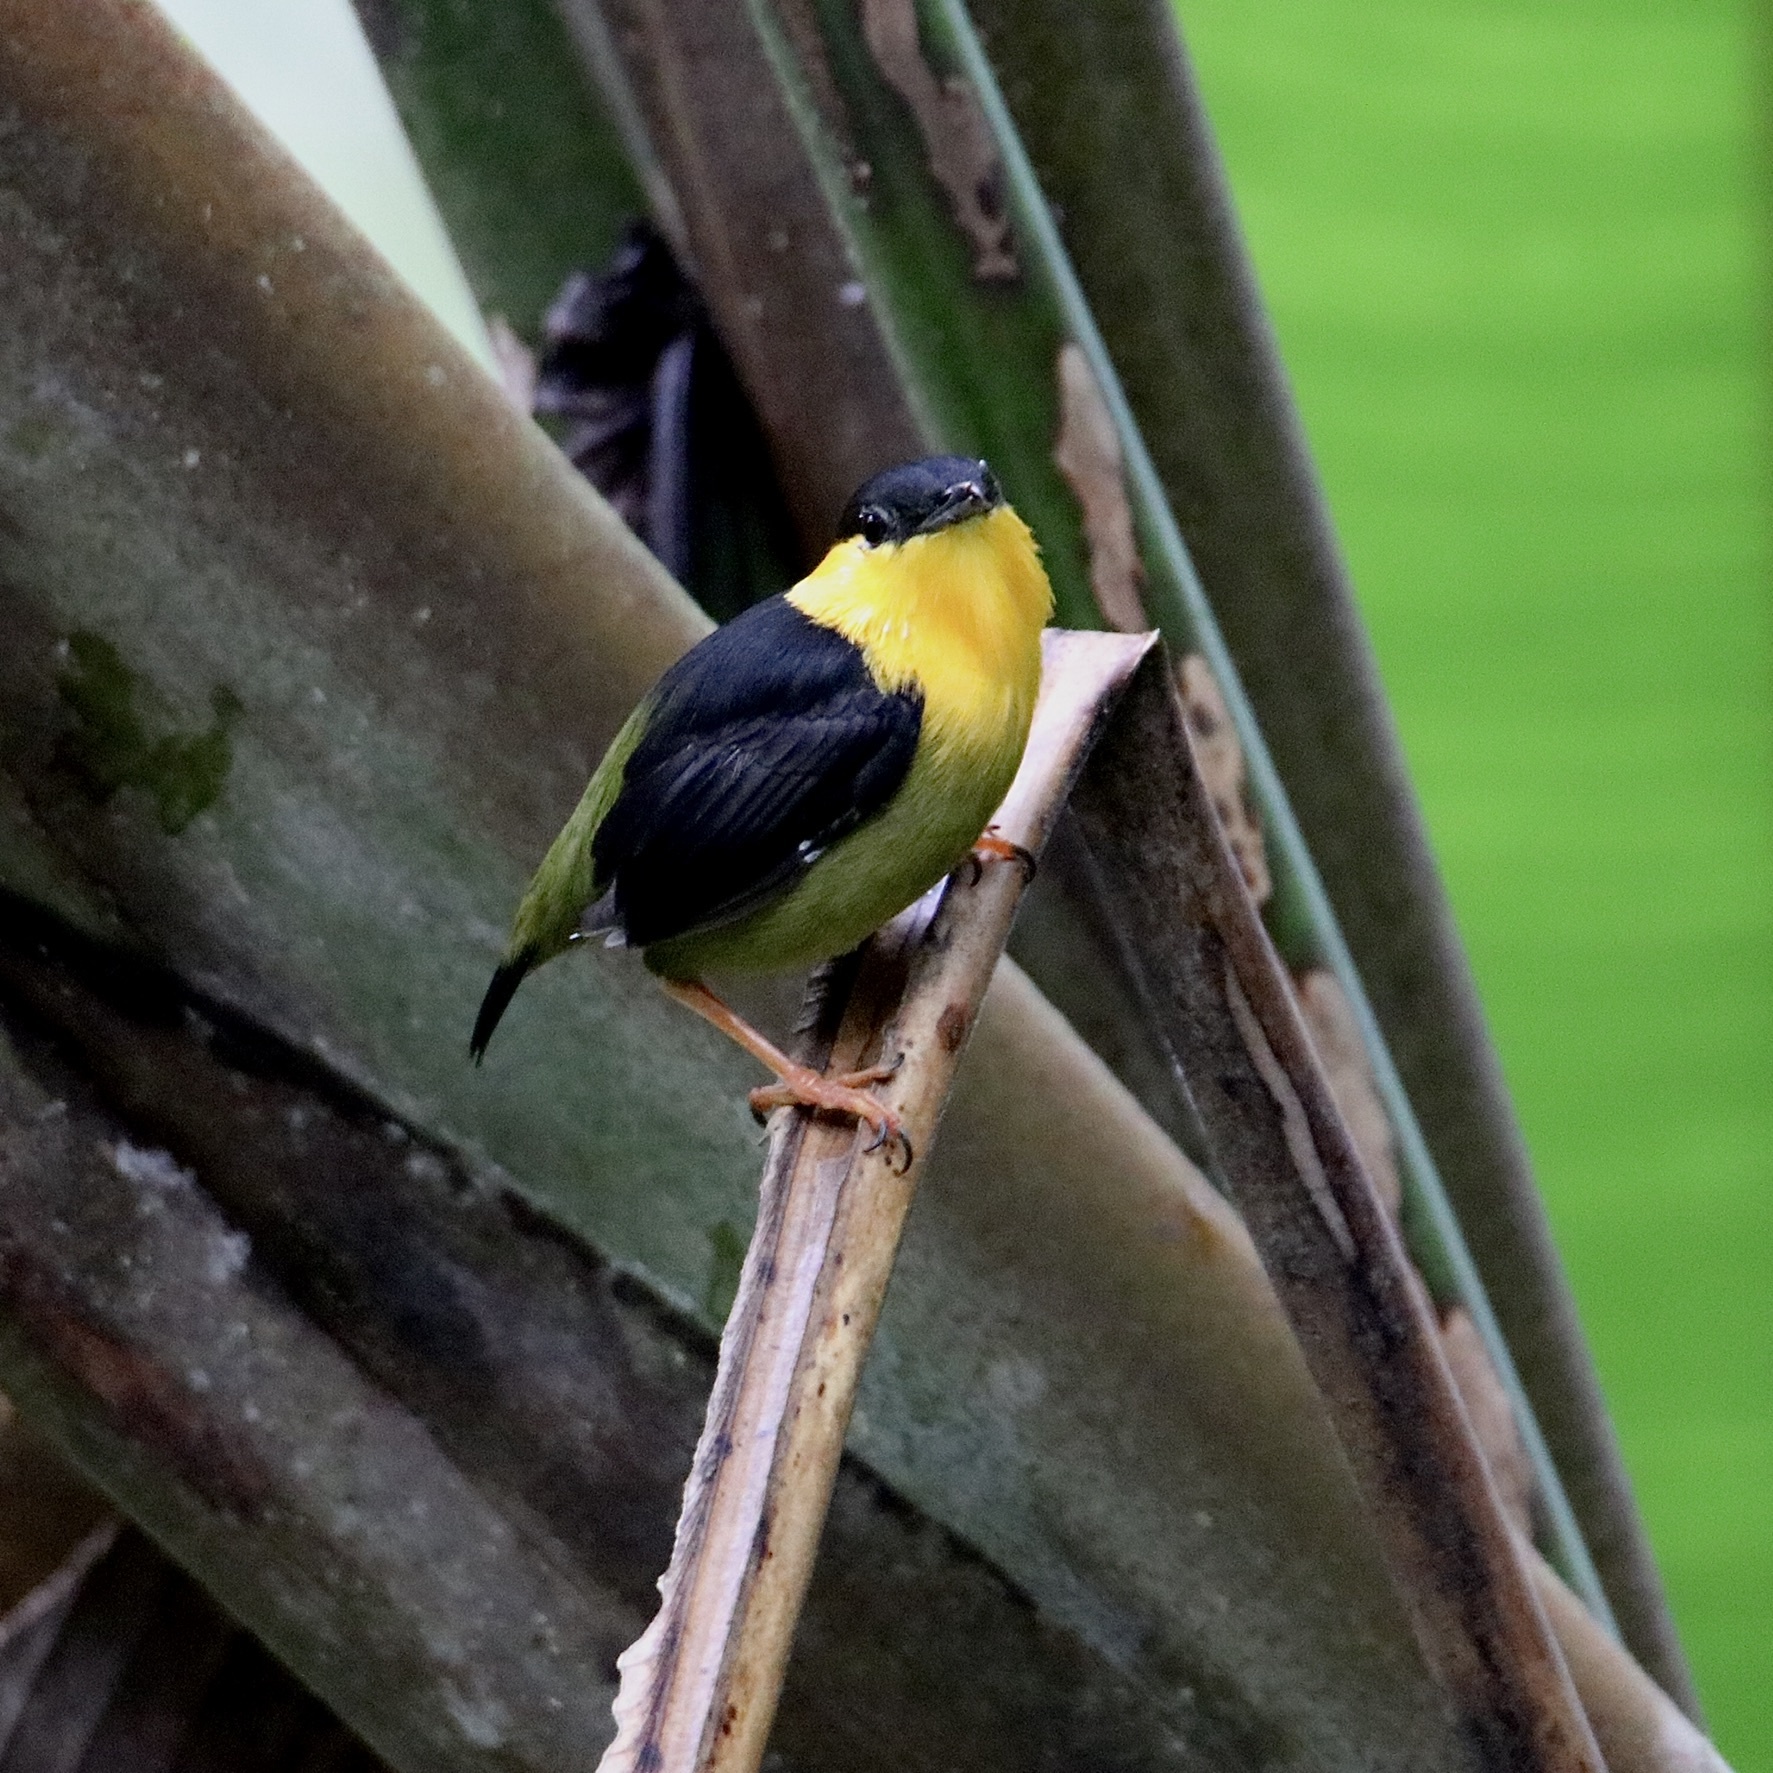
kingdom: Animalia
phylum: Chordata
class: Aves
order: Passeriformes
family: Pipridae
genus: Manacus
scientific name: Manacus vitellinus
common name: Golden-collared manakin
